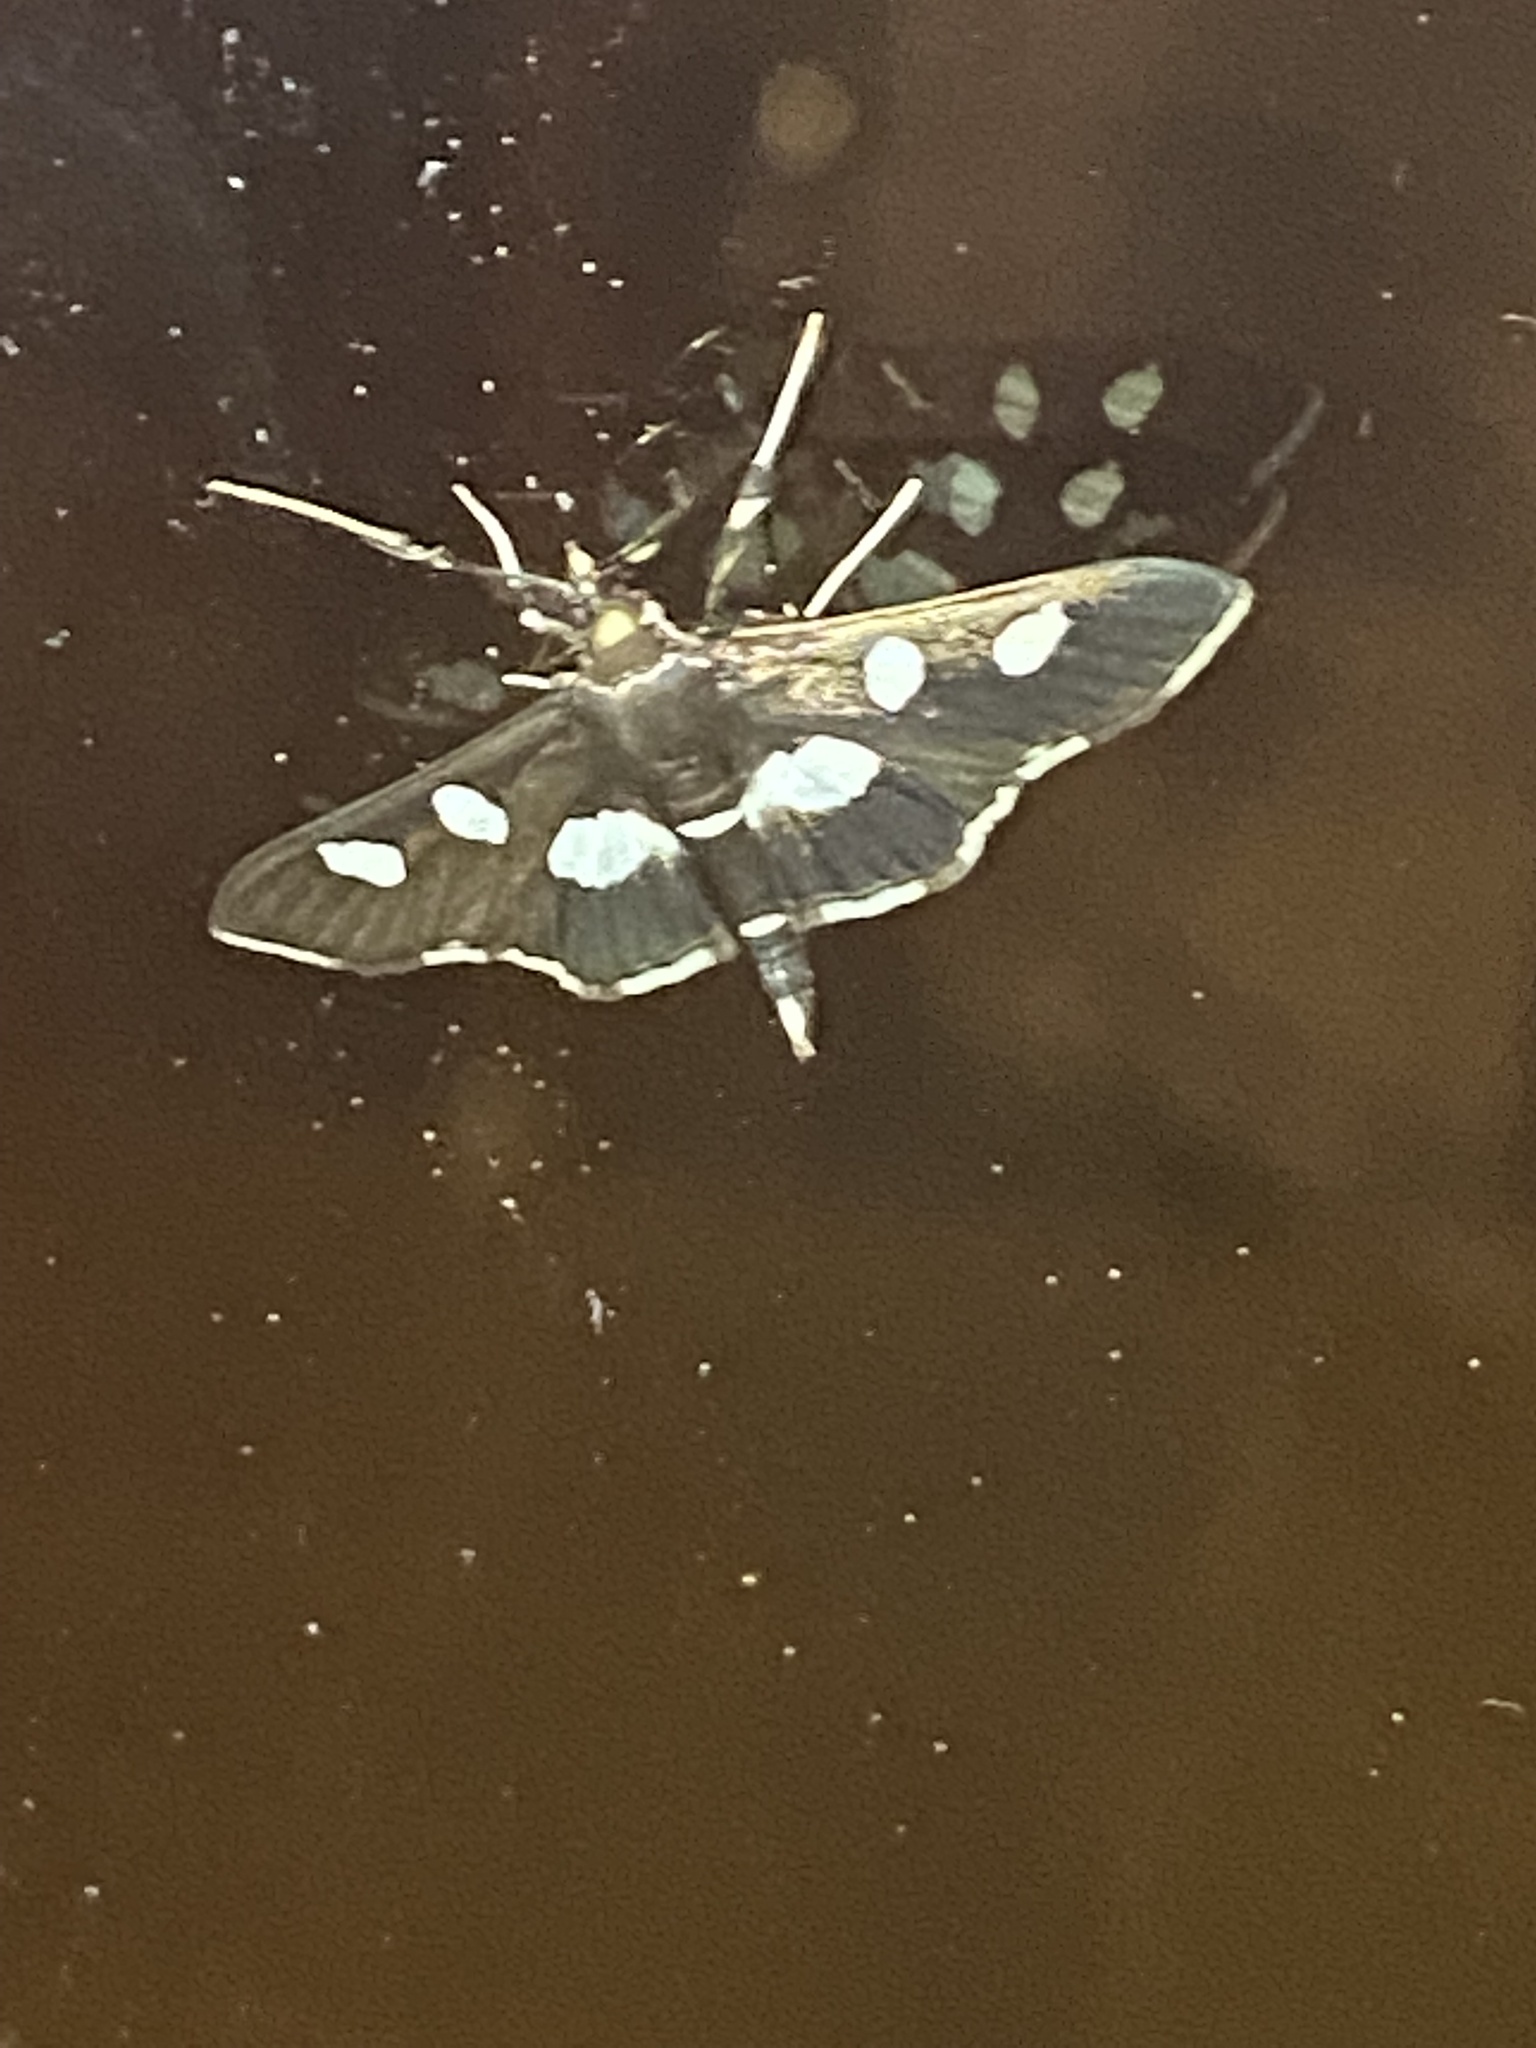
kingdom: Animalia
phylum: Arthropoda
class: Insecta
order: Lepidoptera
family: Crambidae
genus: Desmia
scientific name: Desmia
